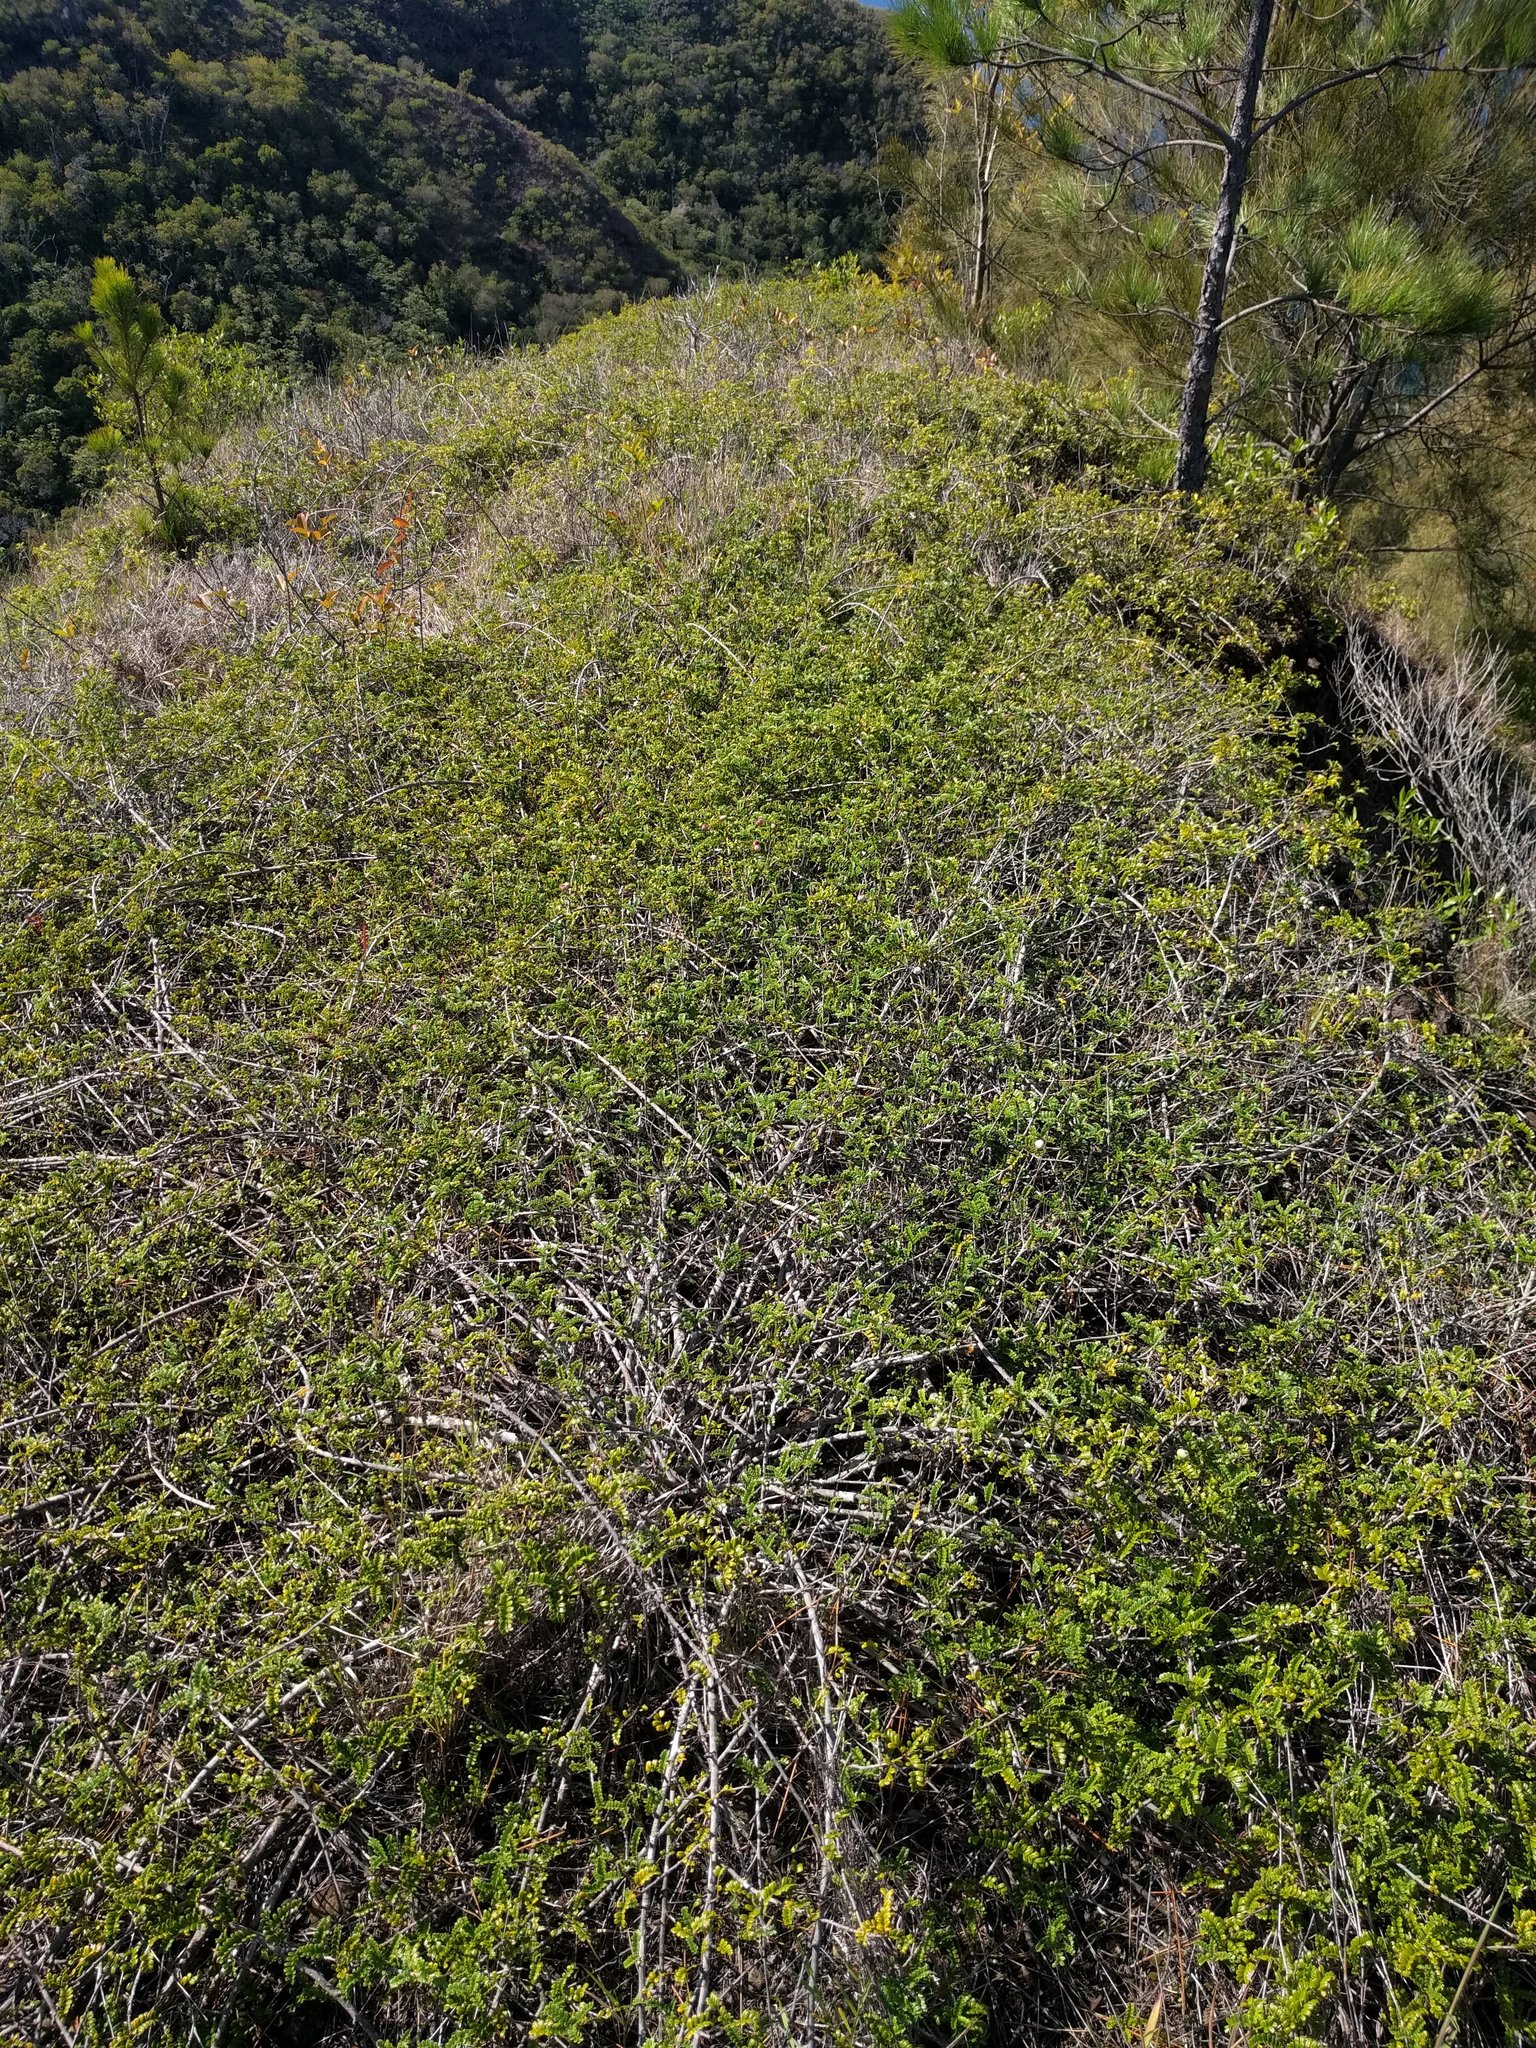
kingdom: Plantae
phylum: Tracheophyta
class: Magnoliopsida
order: Rosales
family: Rosaceae
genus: Osteomeles
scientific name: Osteomeles anthyllidifolia
